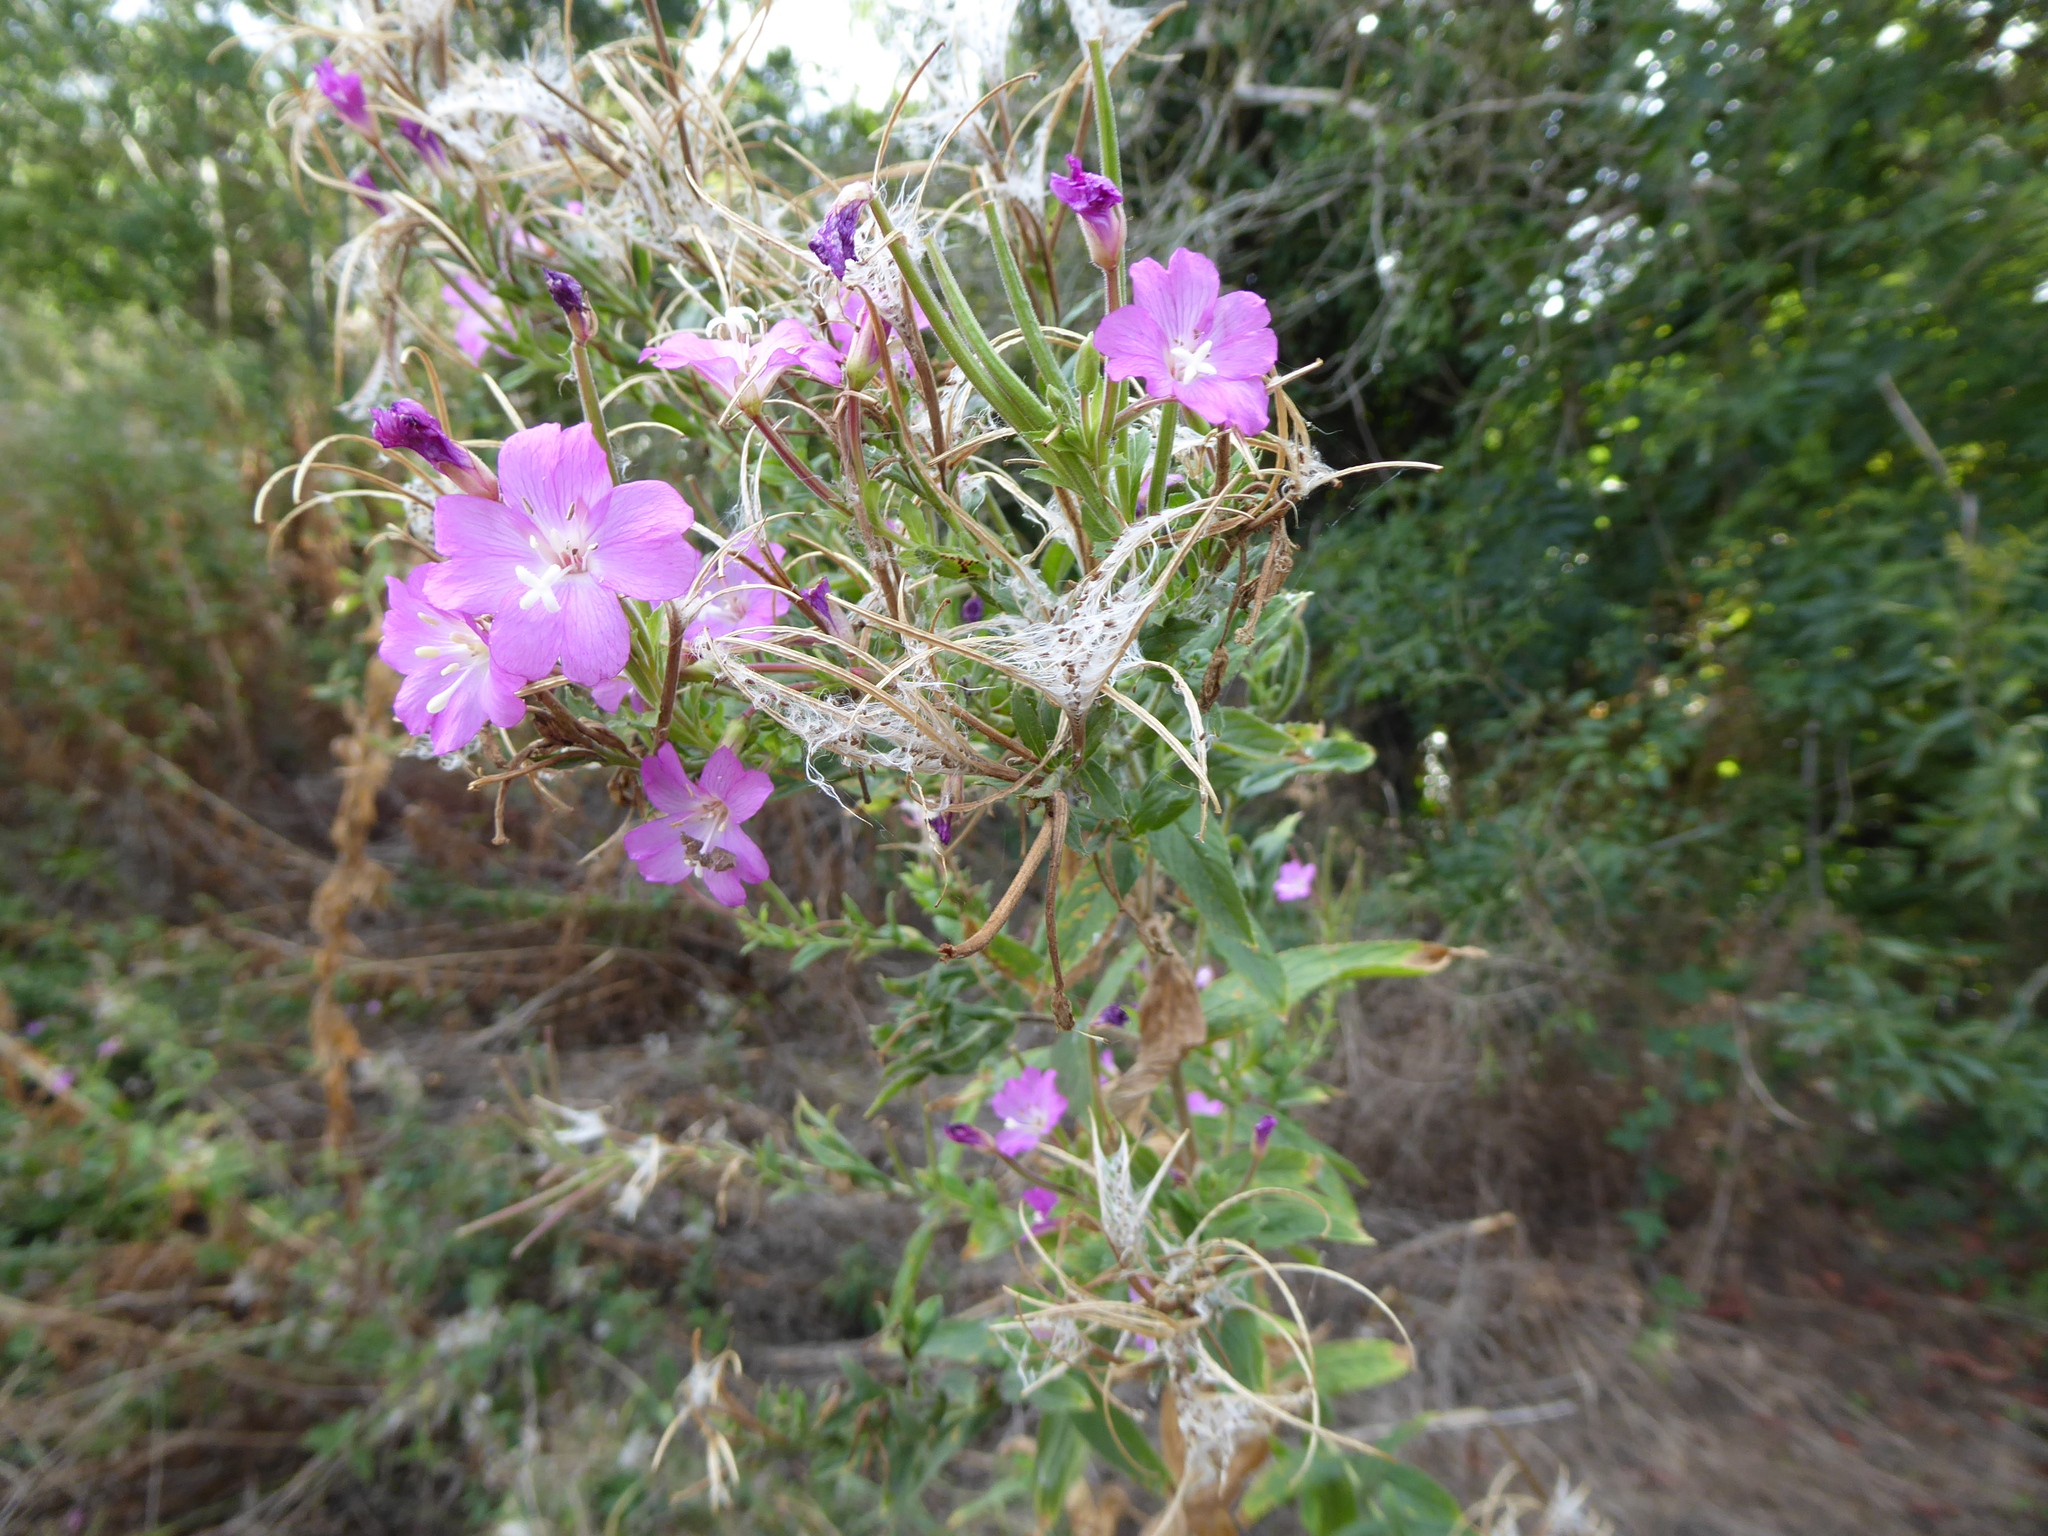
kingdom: Plantae
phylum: Tracheophyta
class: Magnoliopsida
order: Myrtales
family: Onagraceae
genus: Epilobium
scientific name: Epilobium hirsutum
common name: Great willowherb
